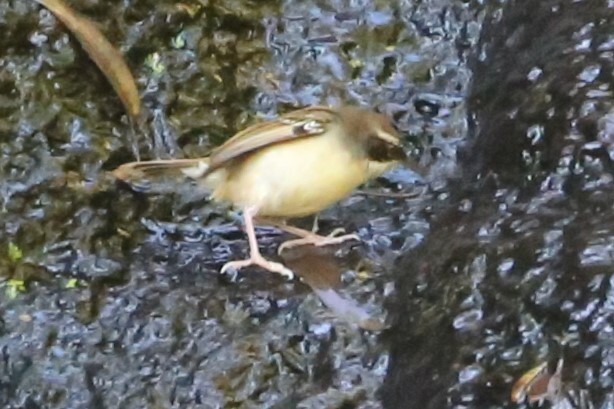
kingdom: Animalia
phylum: Chordata
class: Aves
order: Passeriformes
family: Acanthizidae
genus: Sericornis
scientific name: Sericornis frontalis
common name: White-browed scrubwren
